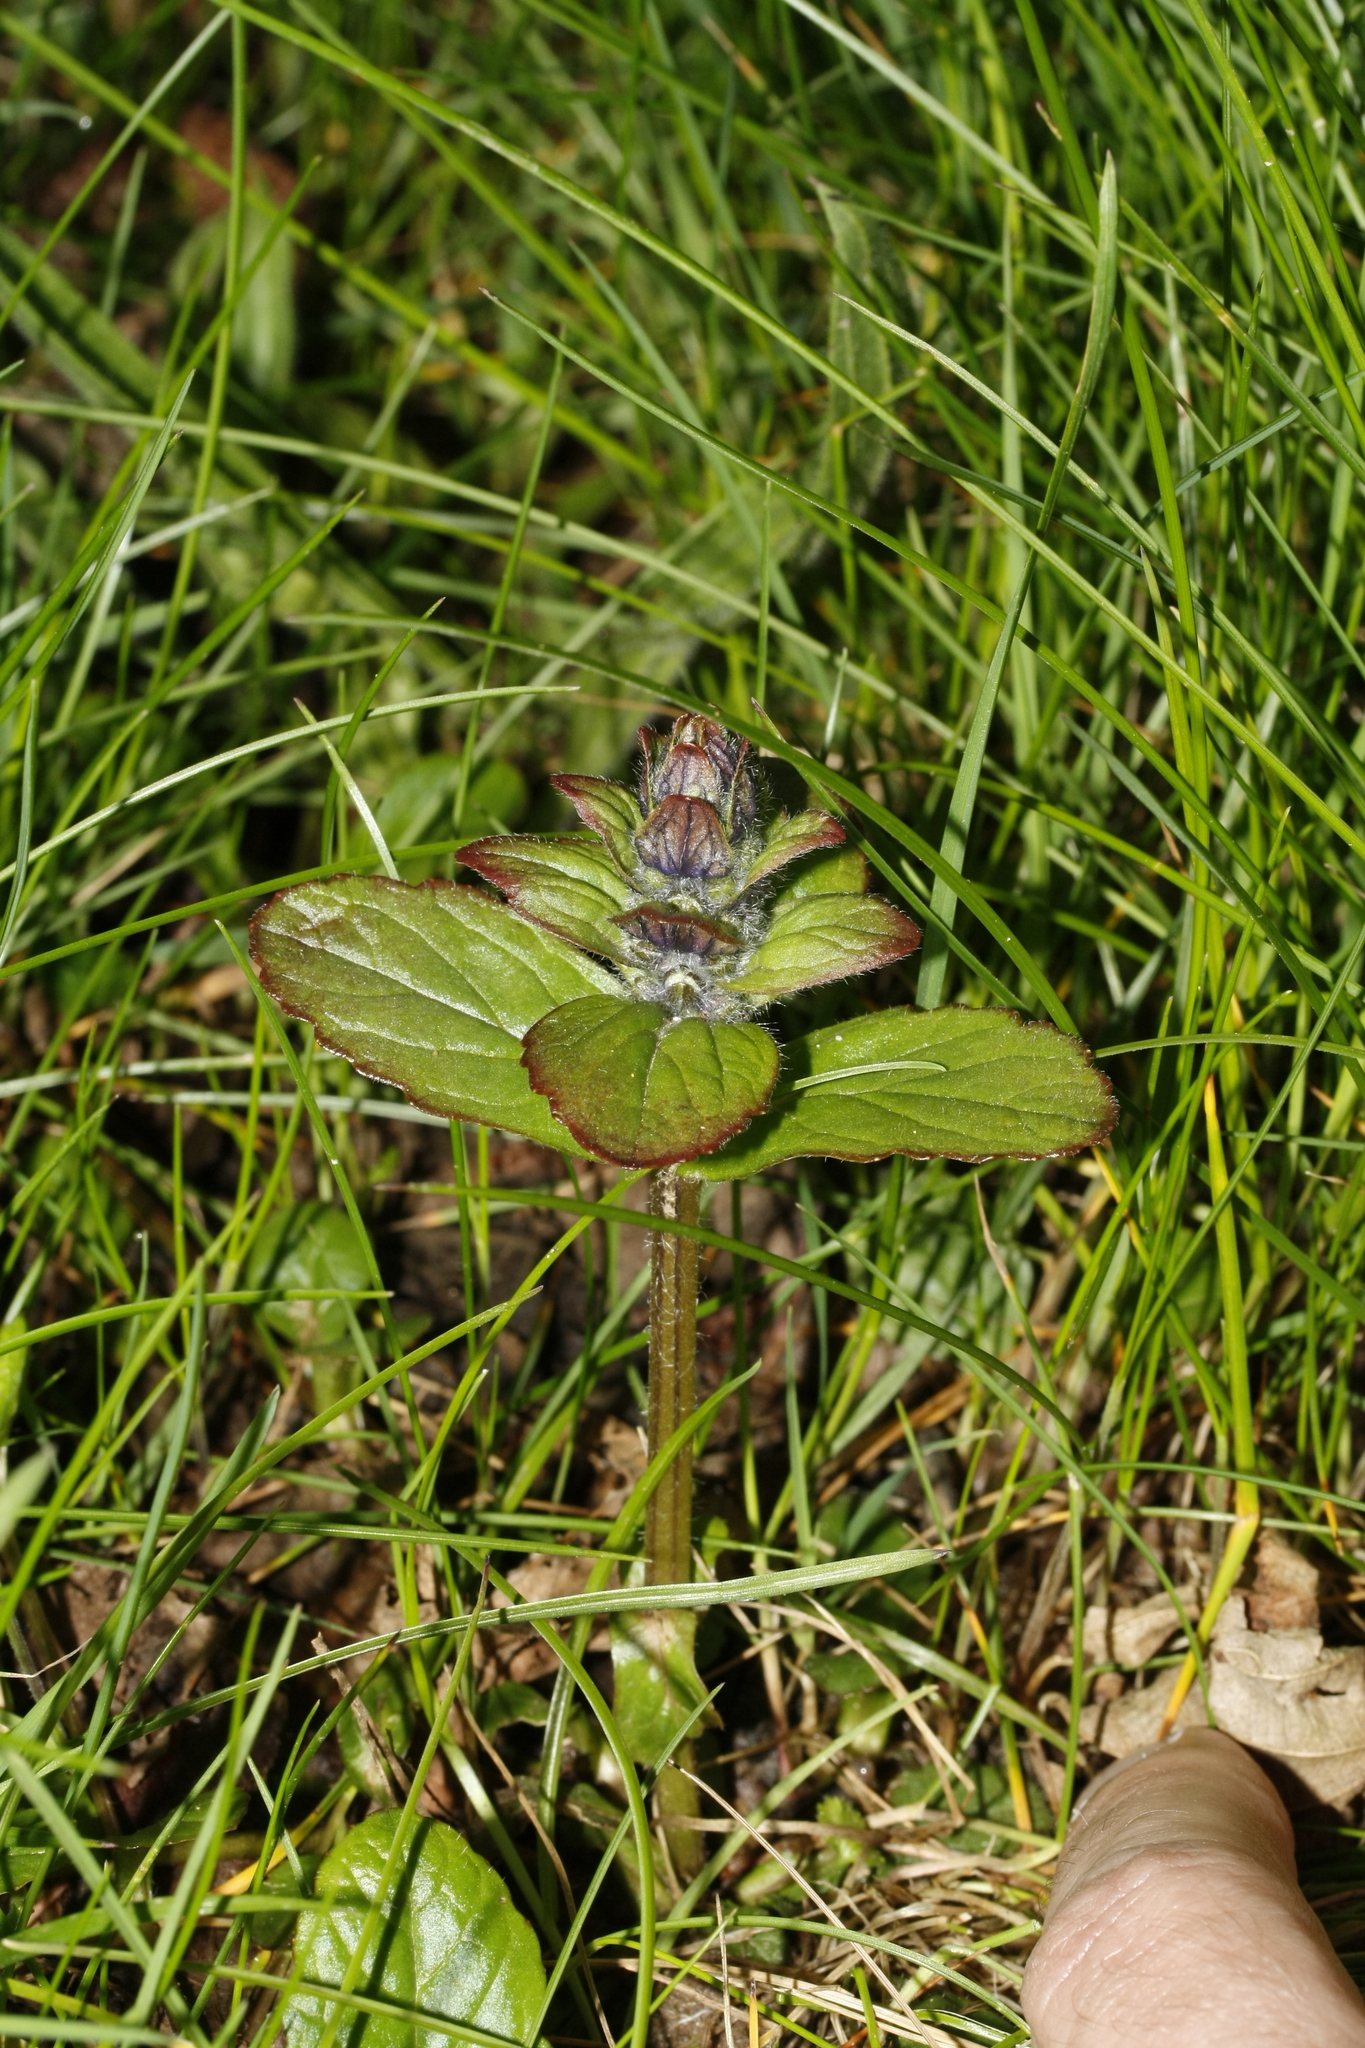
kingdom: Plantae
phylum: Tracheophyta
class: Magnoliopsida
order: Lamiales
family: Lamiaceae
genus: Ajuga
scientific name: Ajuga reptans
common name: Bugle
